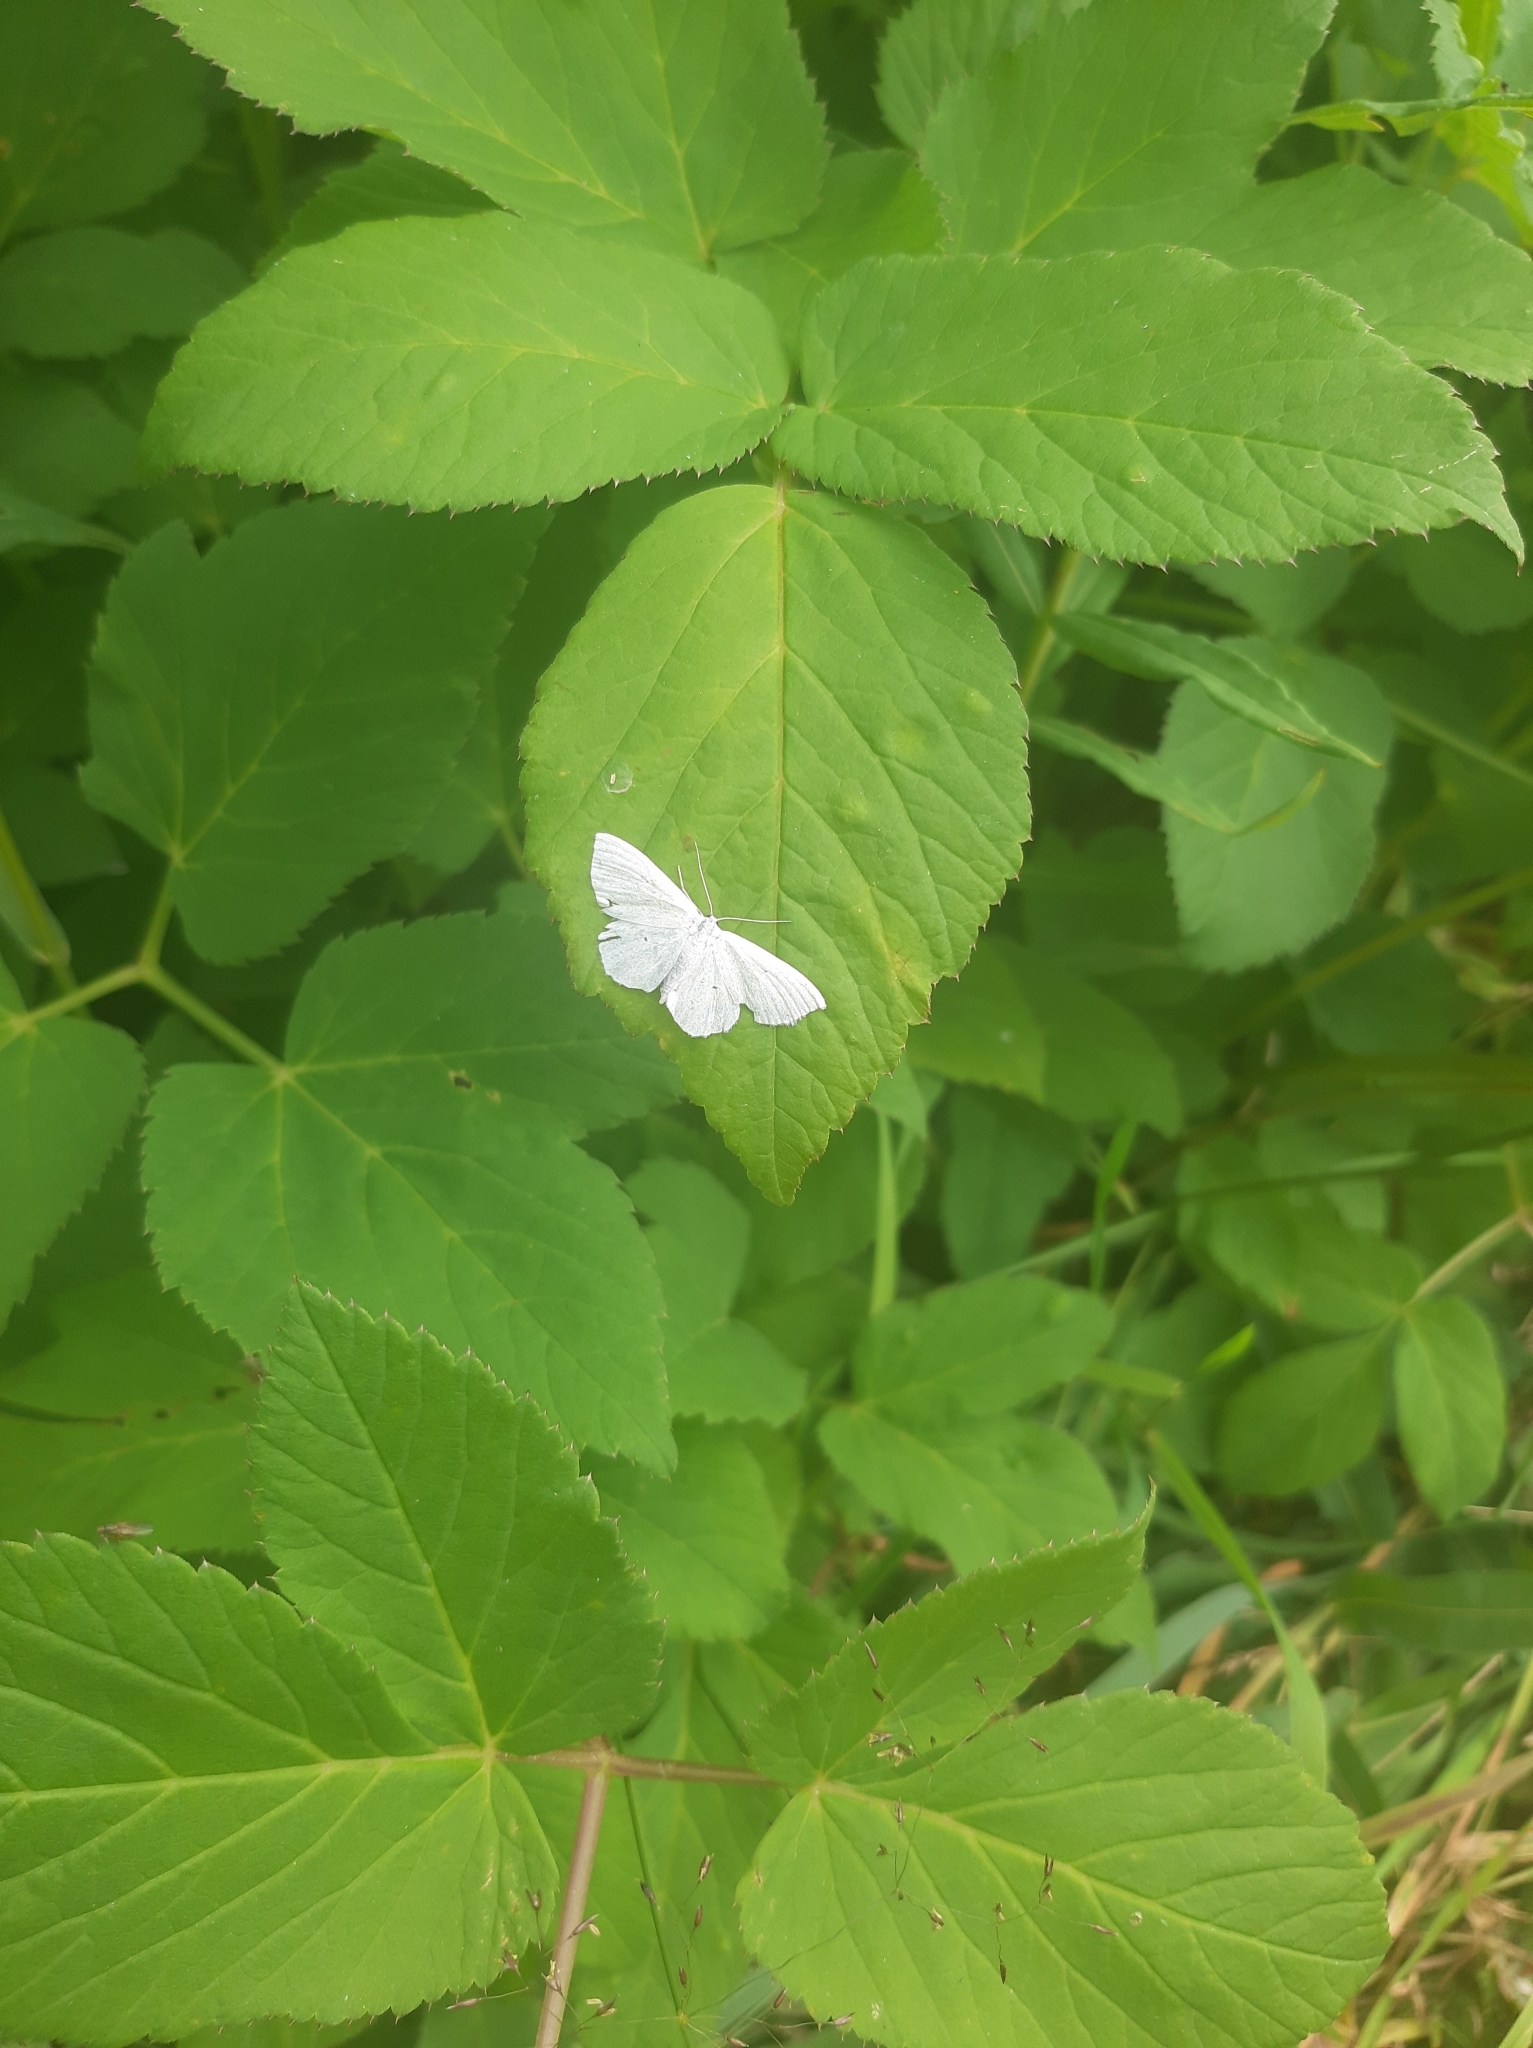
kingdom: Animalia
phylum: Arthropoda
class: Insecta
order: Lepidoptera
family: Geometridae
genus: Scopula
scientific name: Scopula immutata
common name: Lesser cream wave
